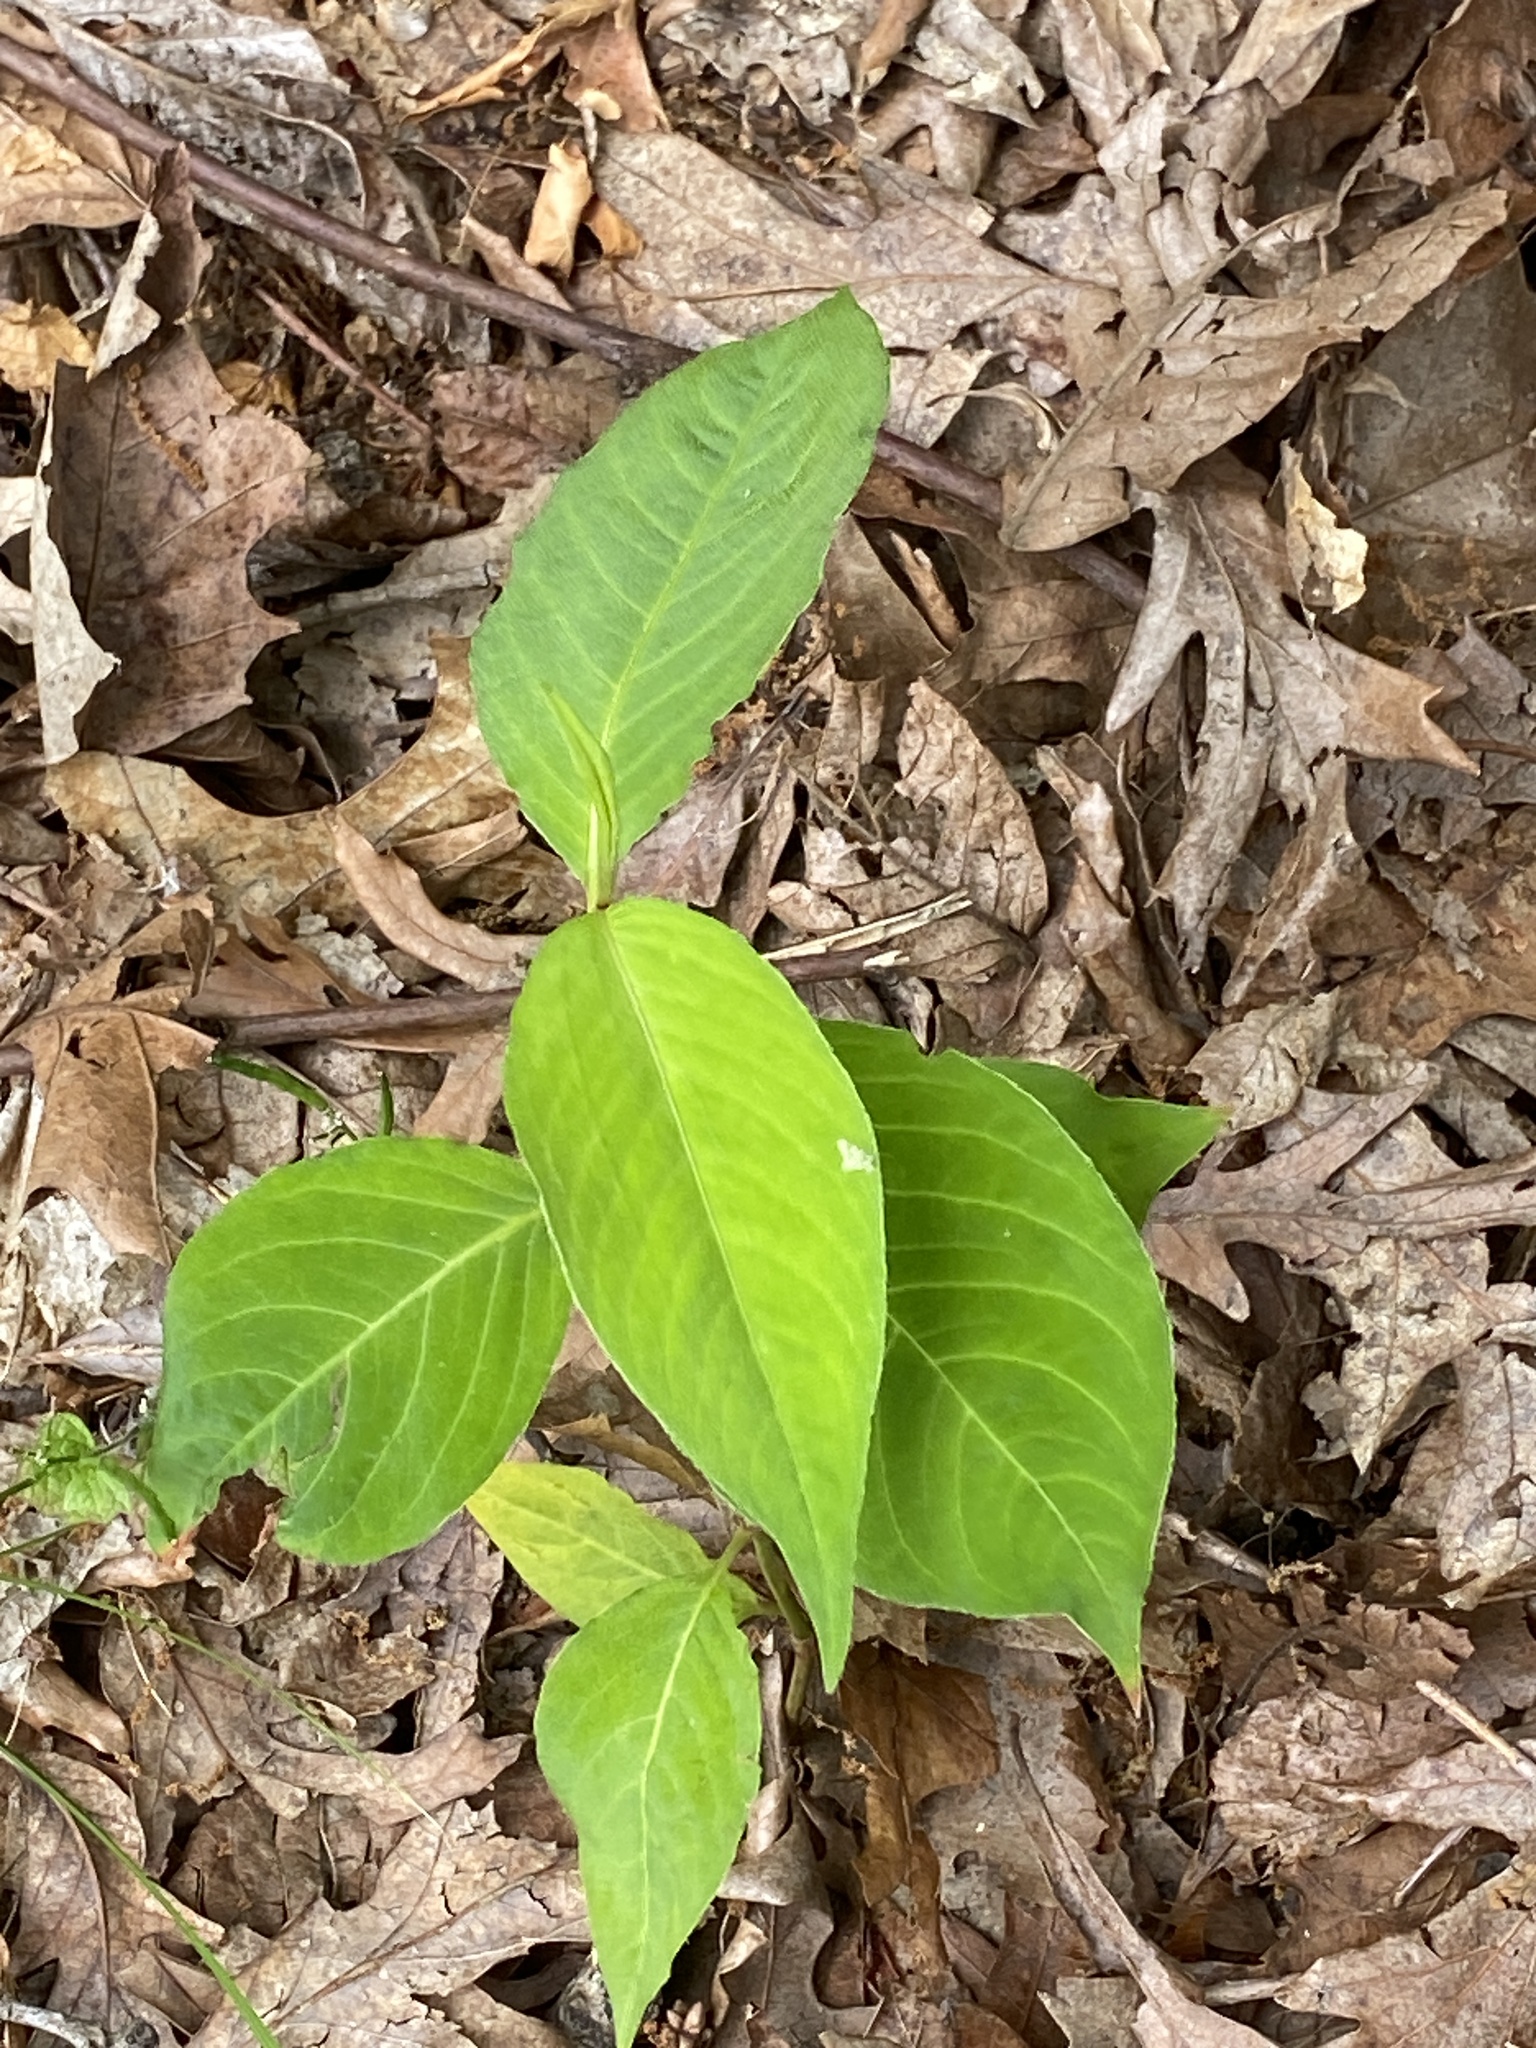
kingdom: Plantae
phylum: Tracheophyta
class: Magnoliopsida
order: Caryophyllales
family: Polygonaceae
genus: Persicaria
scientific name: Persicaria virginiana
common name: Jumpseed
